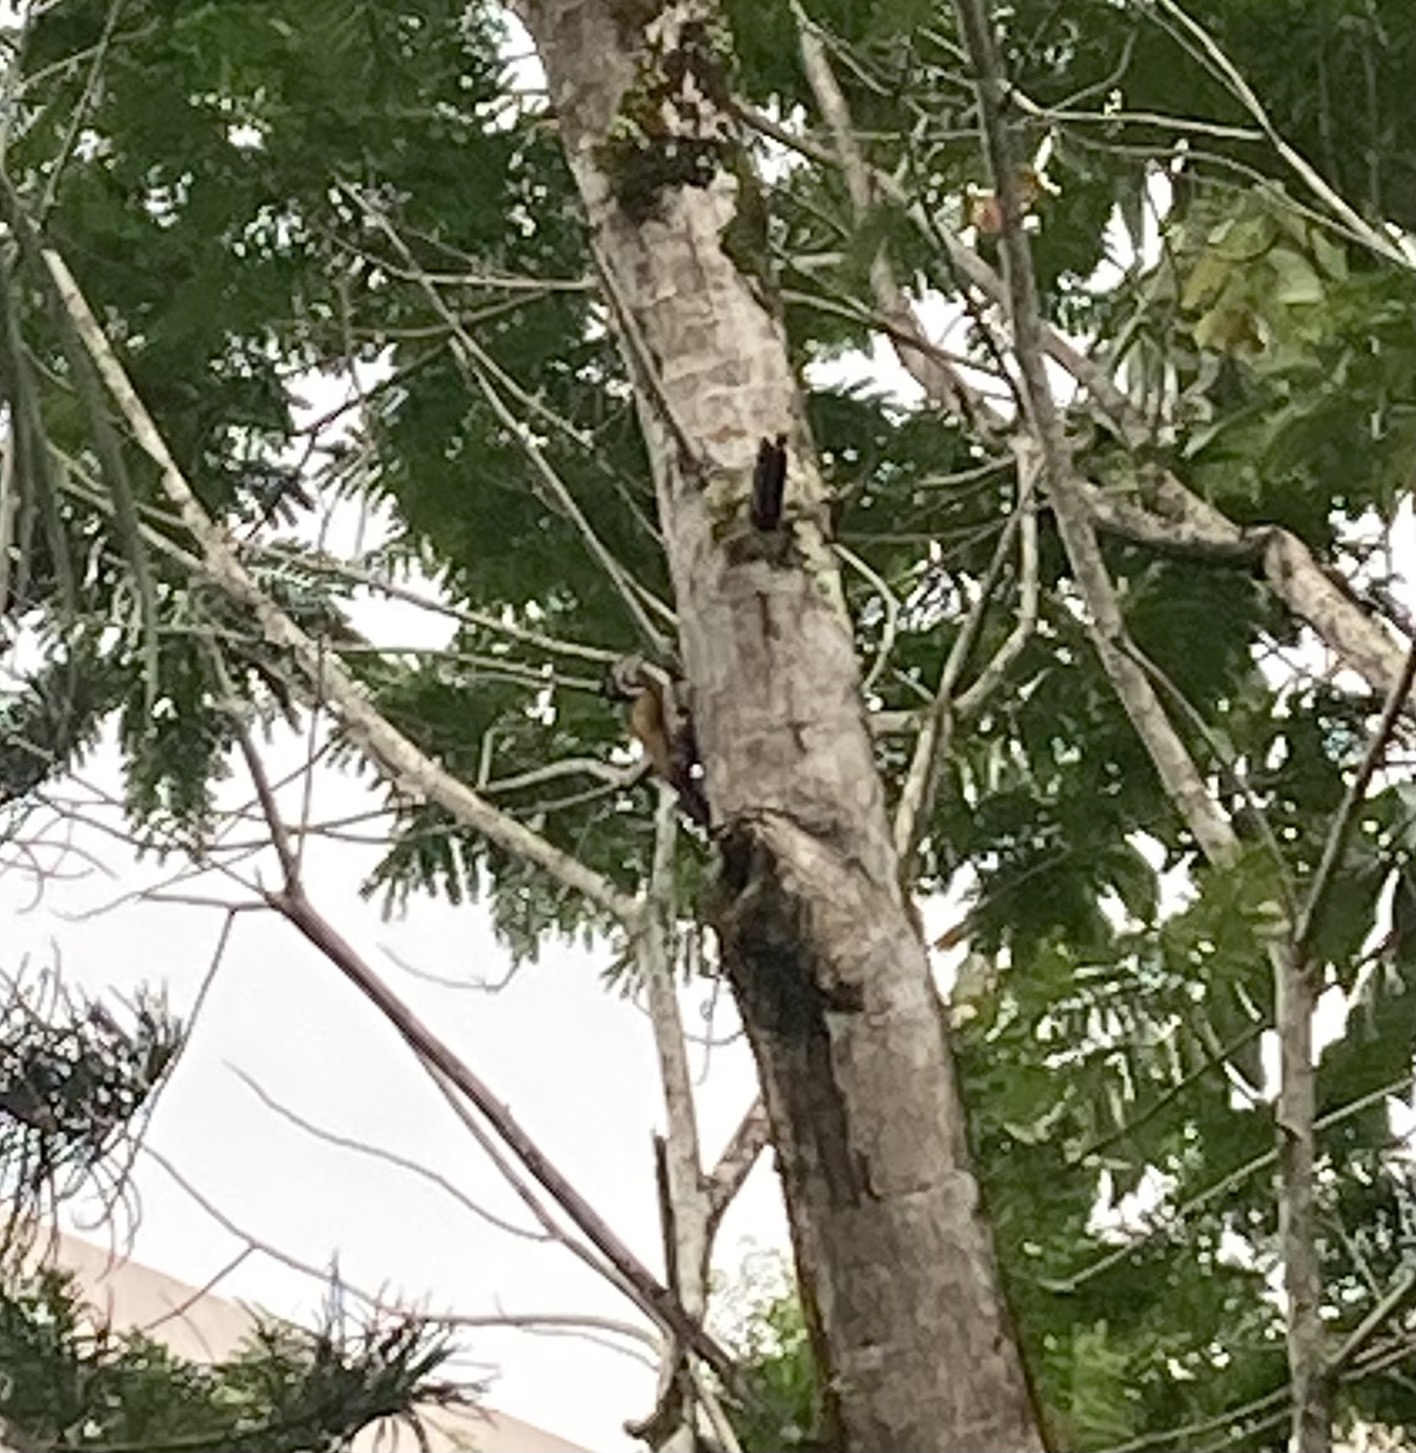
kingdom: Animalia
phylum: Chordata
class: Aves
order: Piciformes
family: Picidae
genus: Dinopium
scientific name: Dinopium javanense
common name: Common flameback
